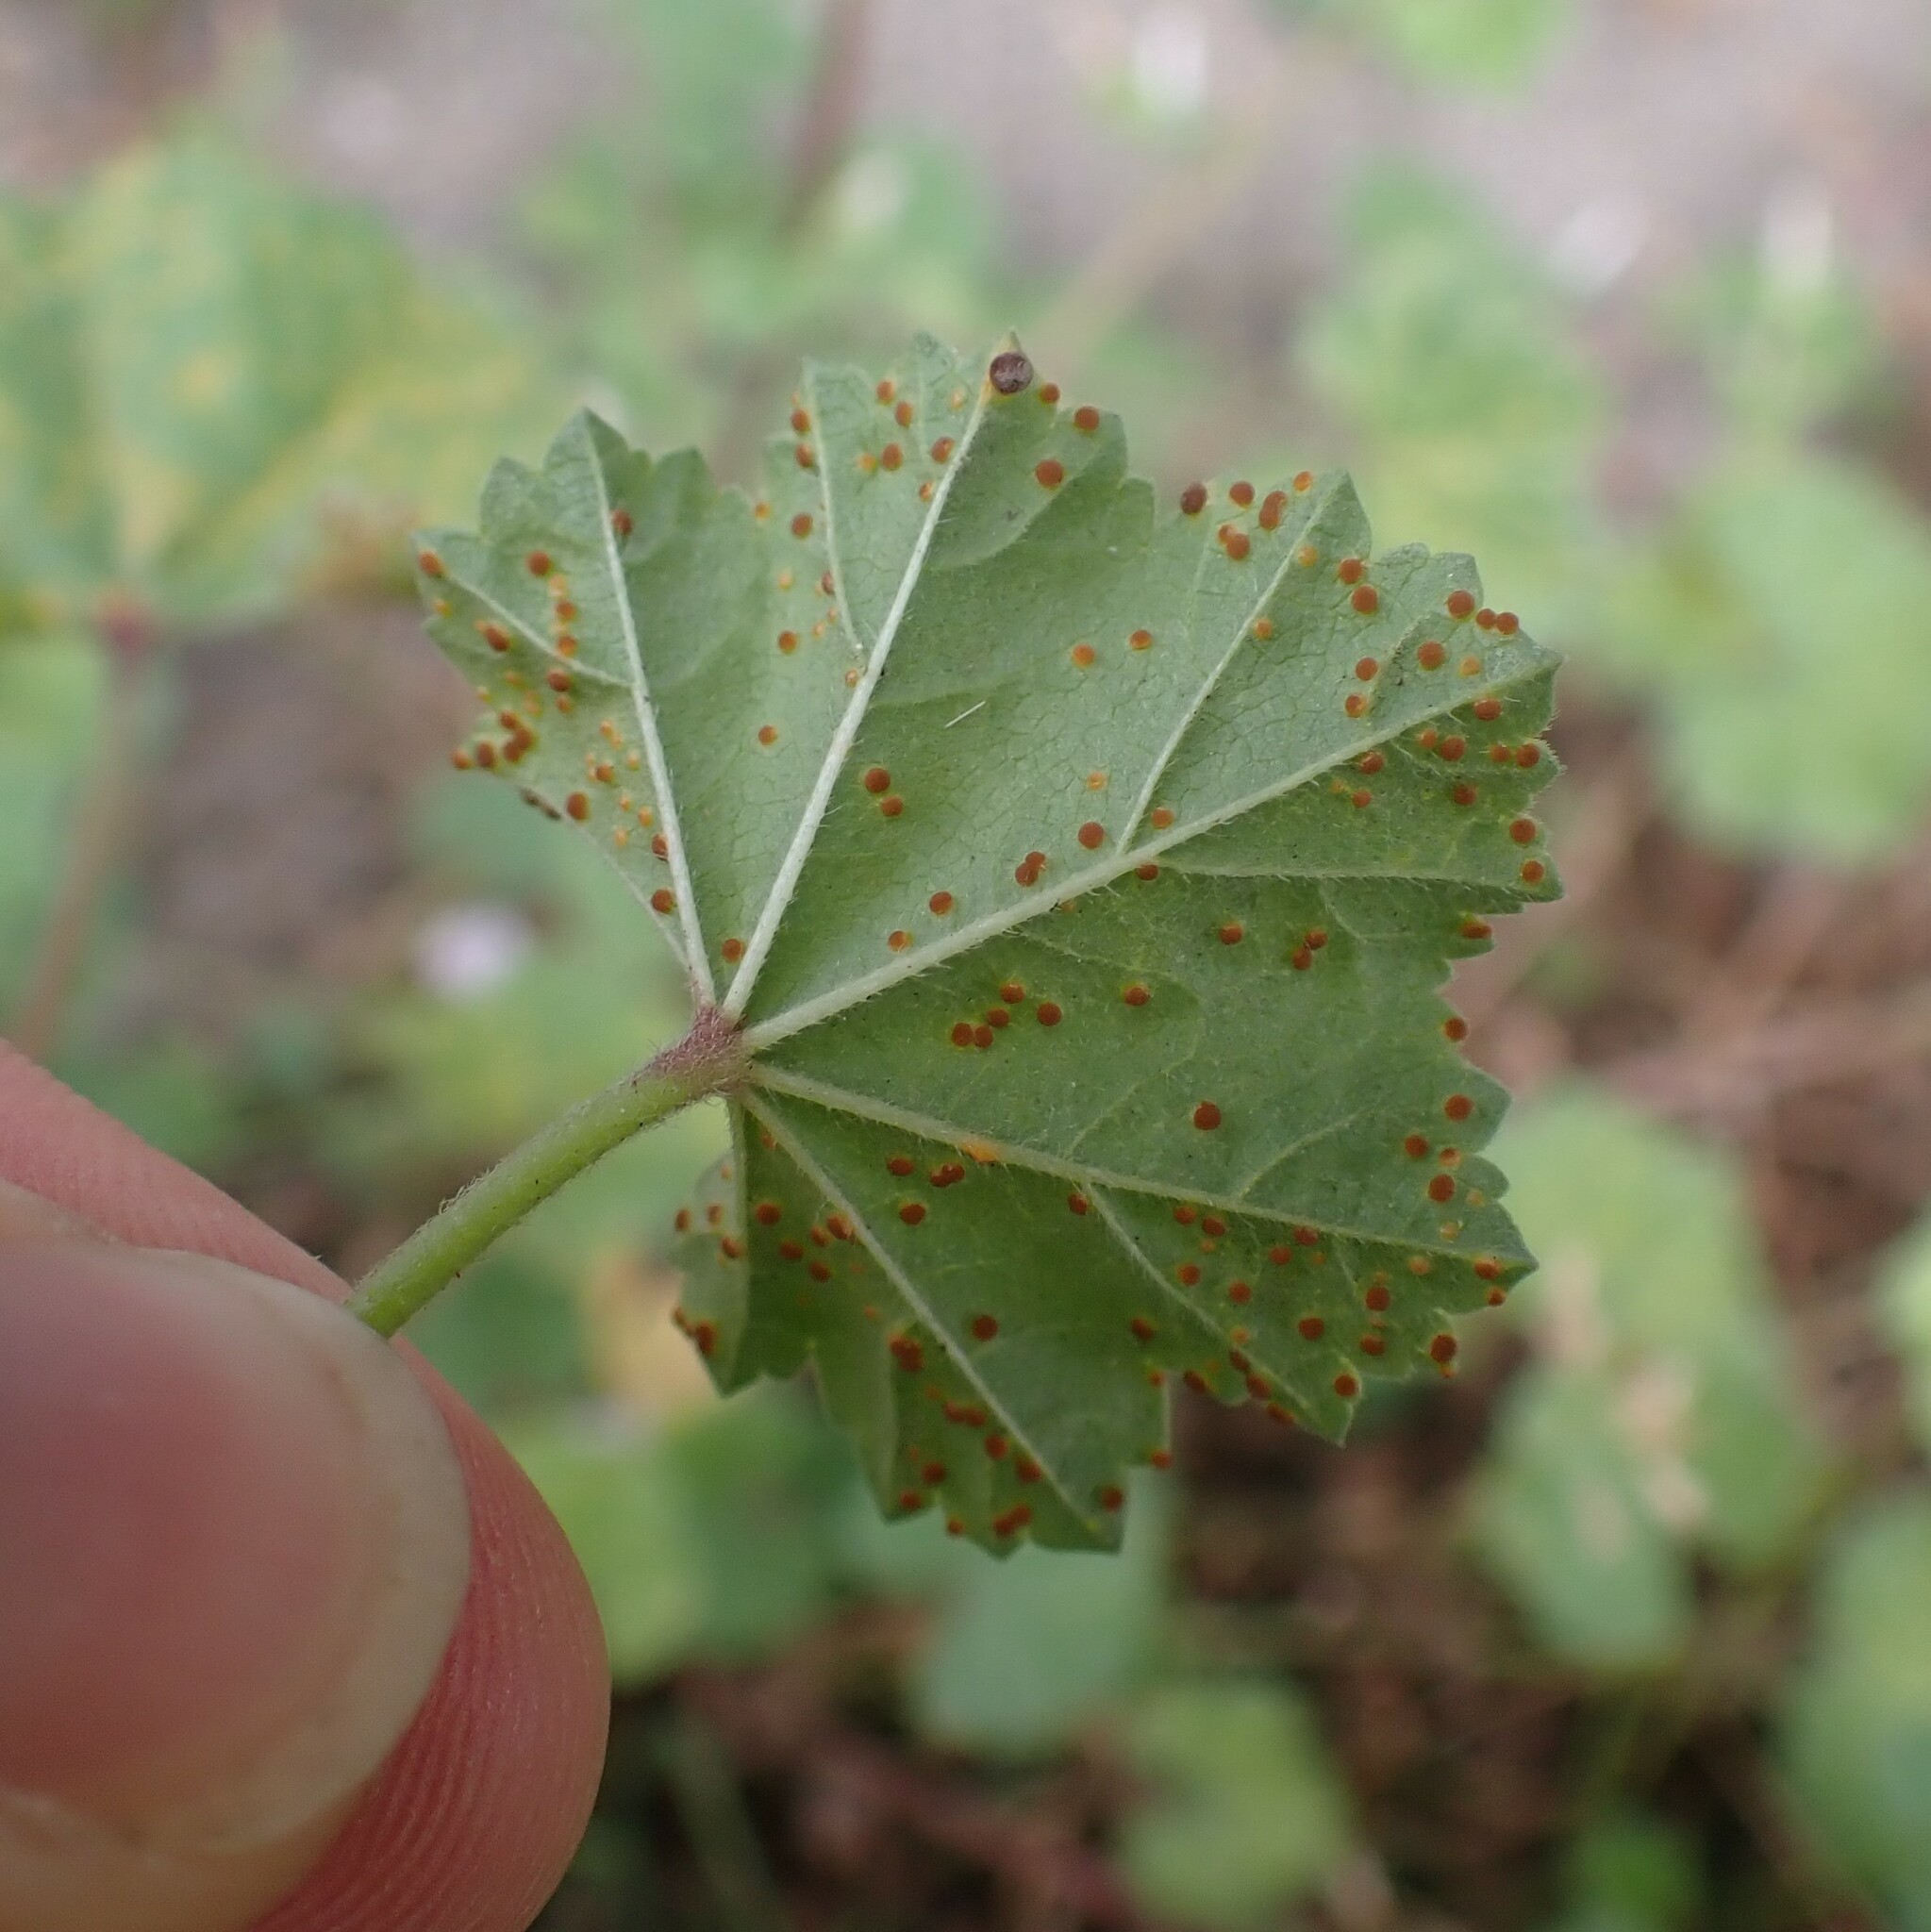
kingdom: Fungi
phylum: Basidiomycota
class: Pucciniomycetes
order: Pucciniales
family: Pucciniaceae
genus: Puccinia
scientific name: Puccinia malvacearum
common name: Hollyhock rust
